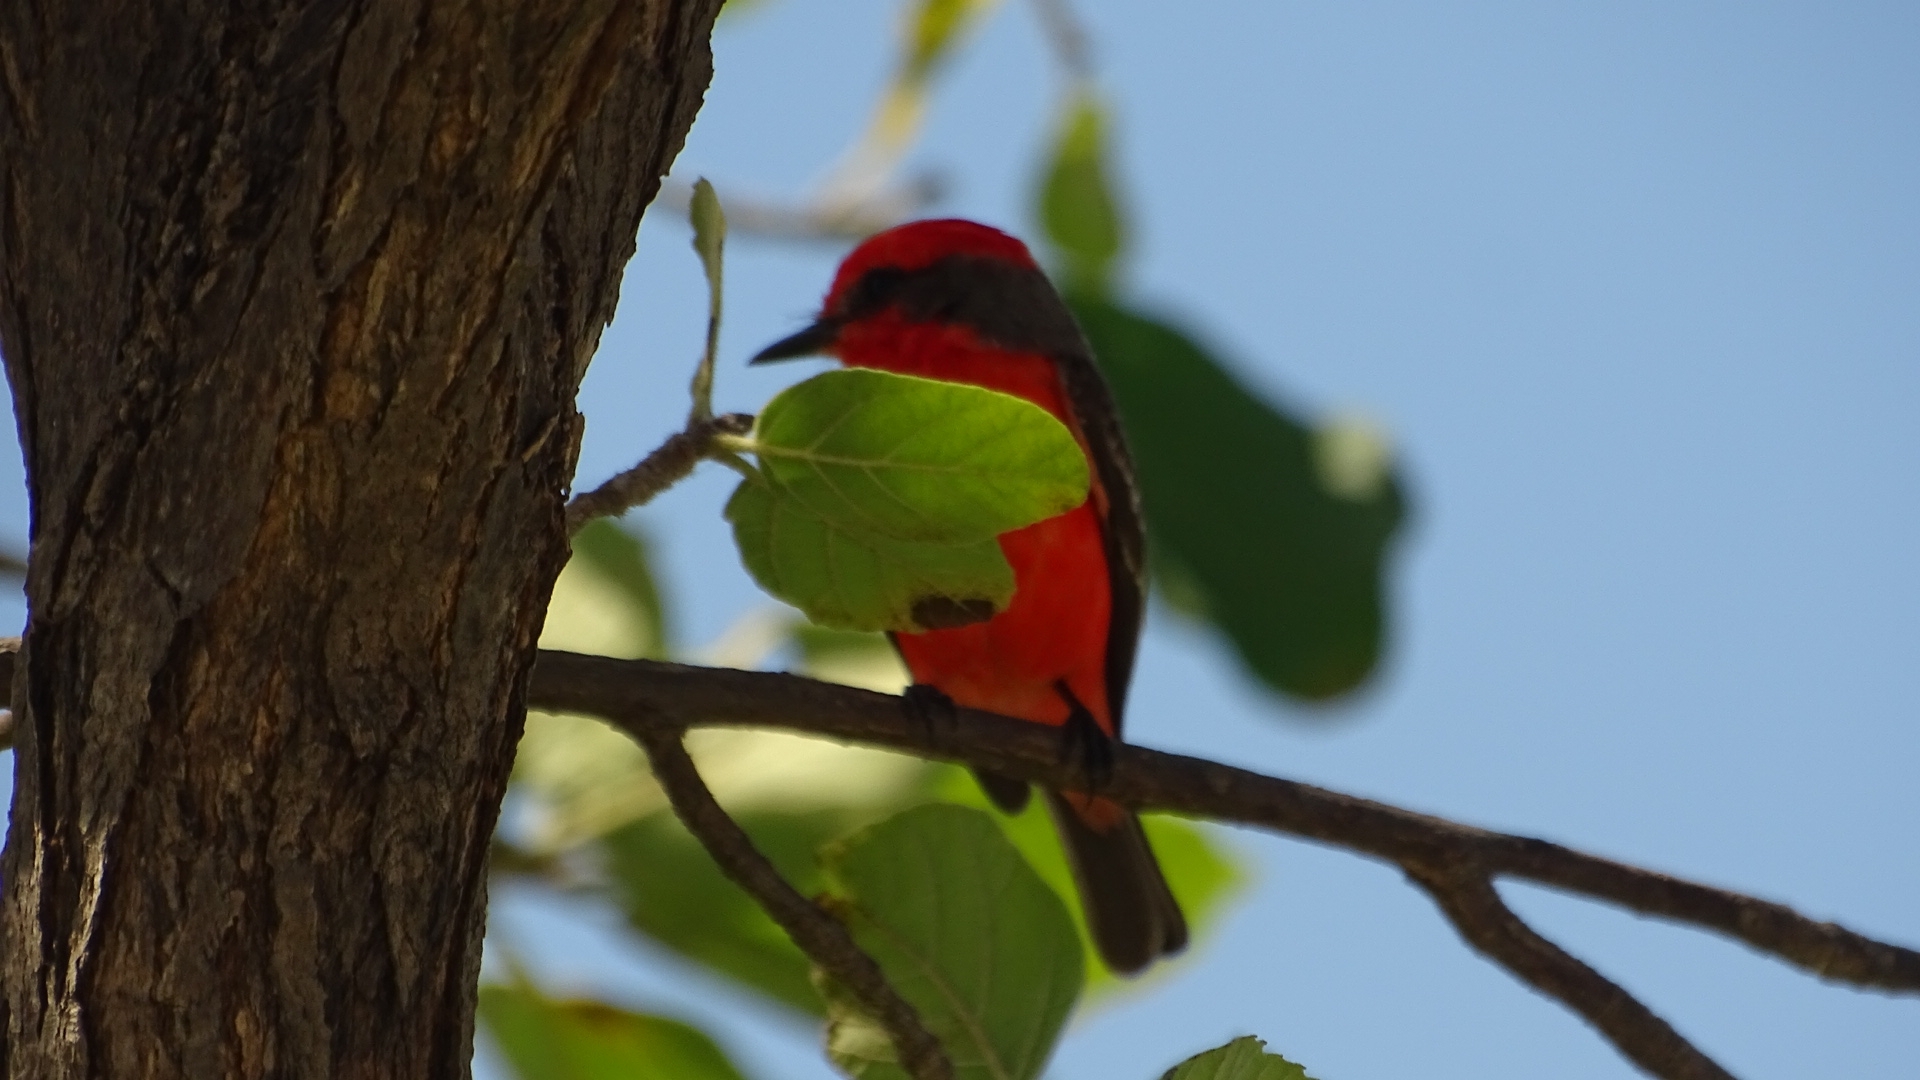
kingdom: Animalia
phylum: Chordata
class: Aves
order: Passeriformes
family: Tyrannidae
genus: Pyrocephalus
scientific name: Pyrocephalus rubinus
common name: Vermilion flycatcher
